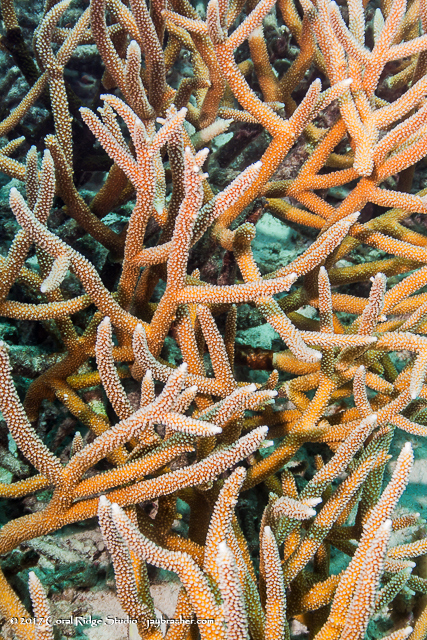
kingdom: Animalia
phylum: Cnidaria
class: Anthozoa
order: Scleractinia
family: Acroporidae
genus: Acropora
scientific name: Acropora cervicornis
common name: Staghorn coral
